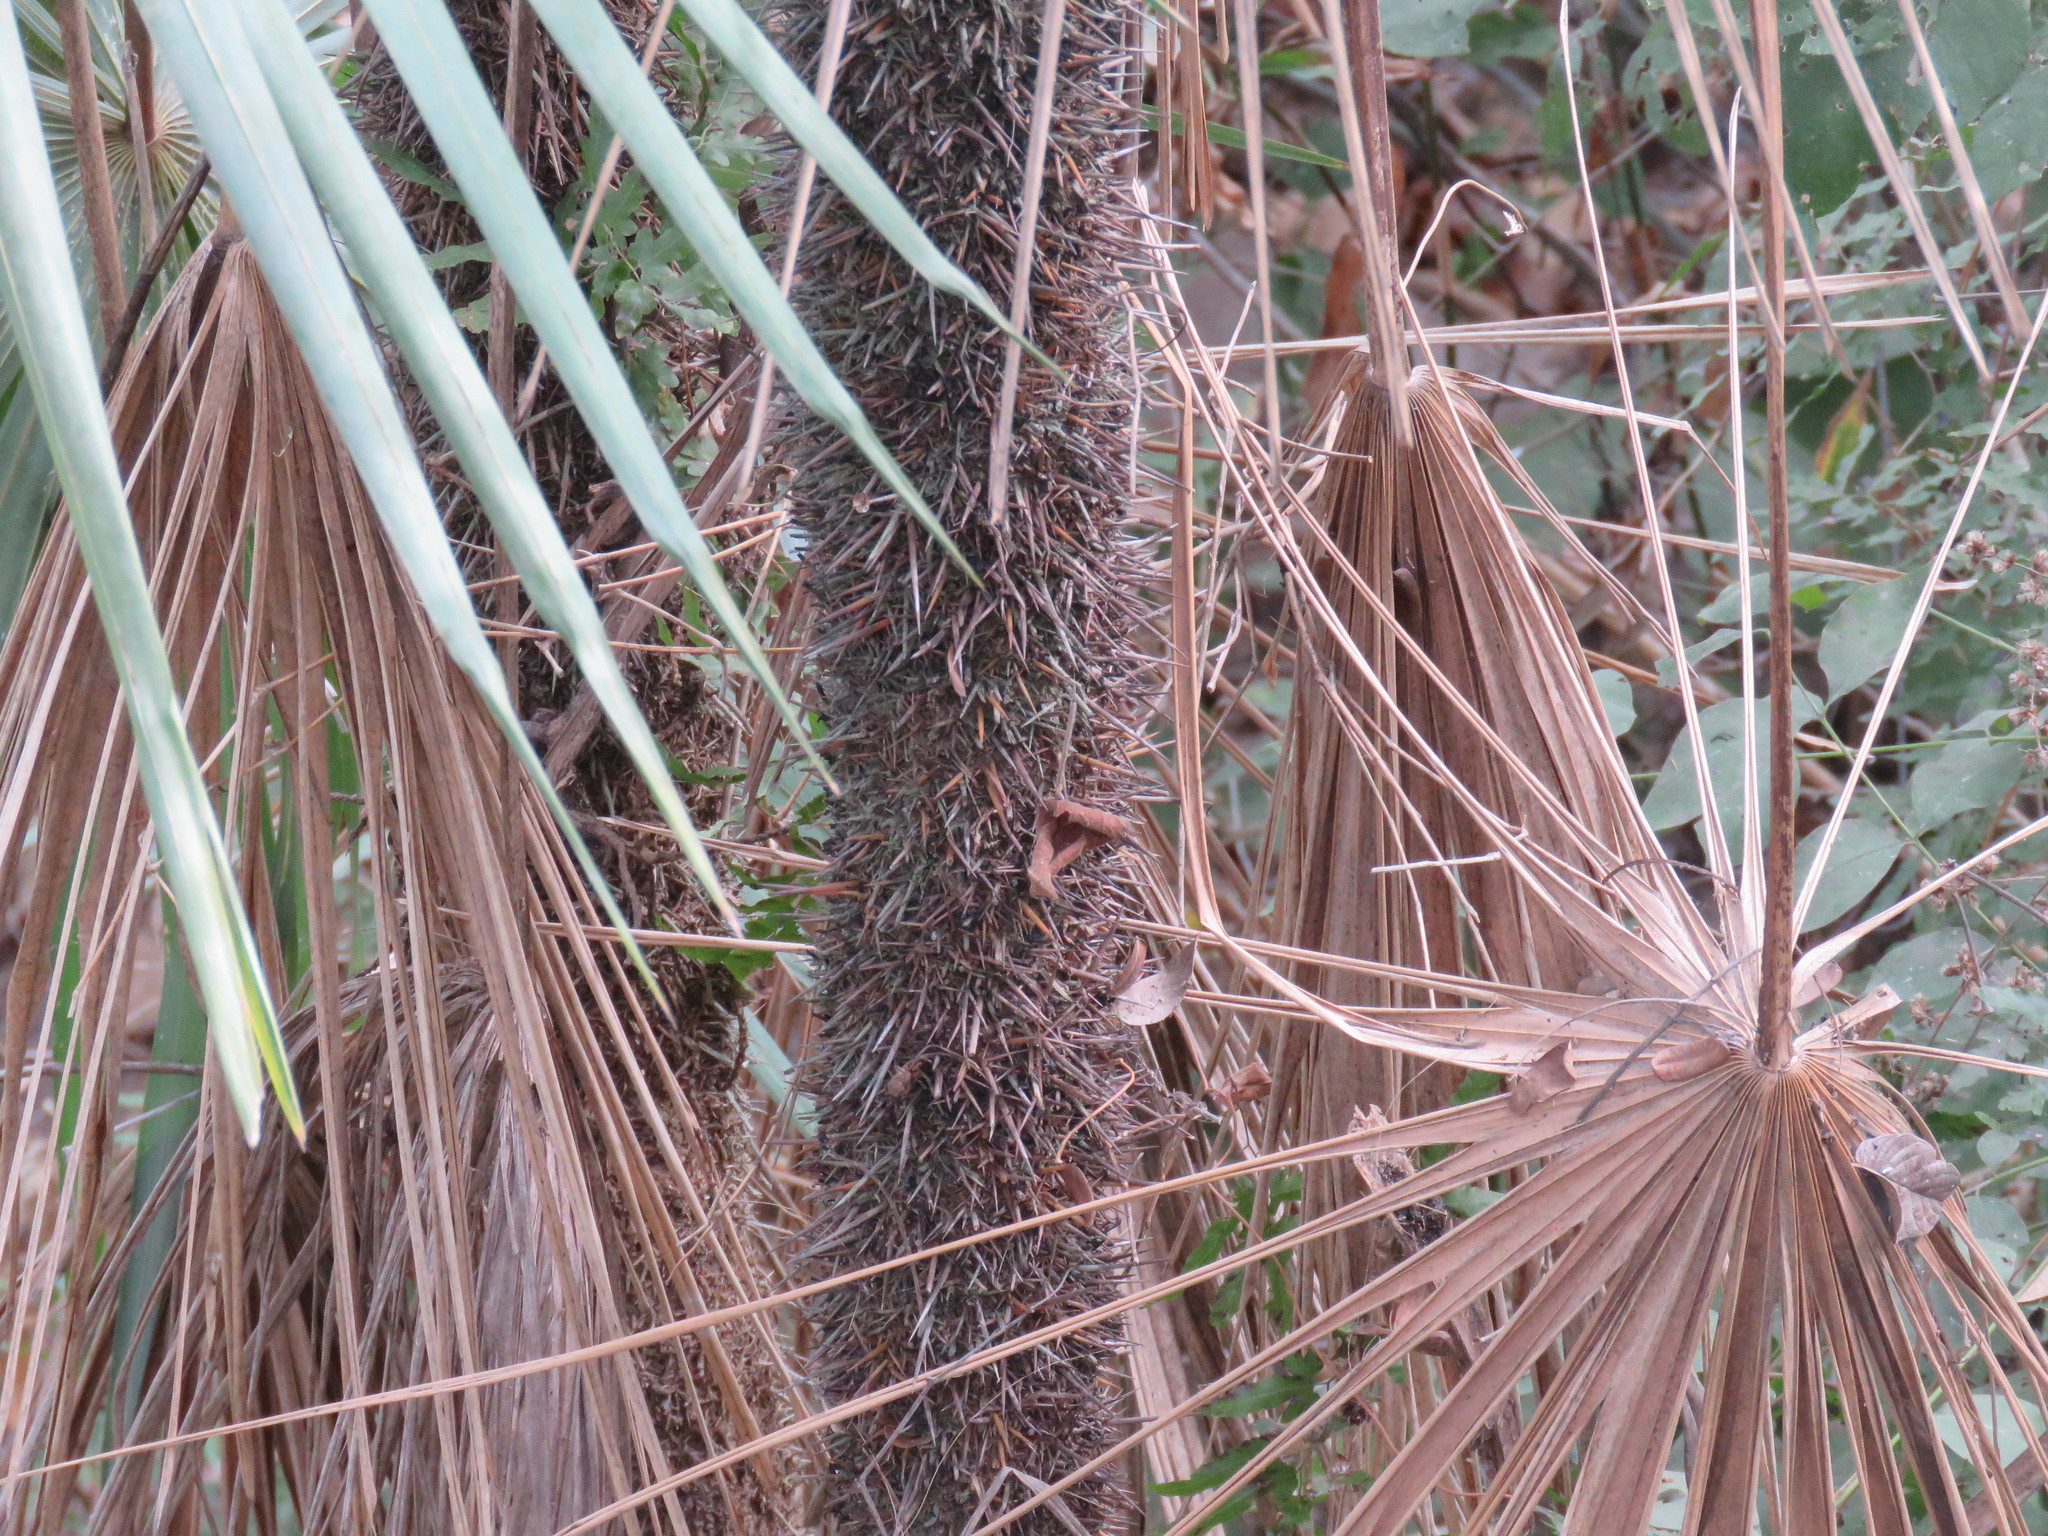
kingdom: Plantae
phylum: Tracheophyta
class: Liliopsida
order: Arecales
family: Arecaceae
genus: Cryosophila
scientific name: Cryosophila nana
